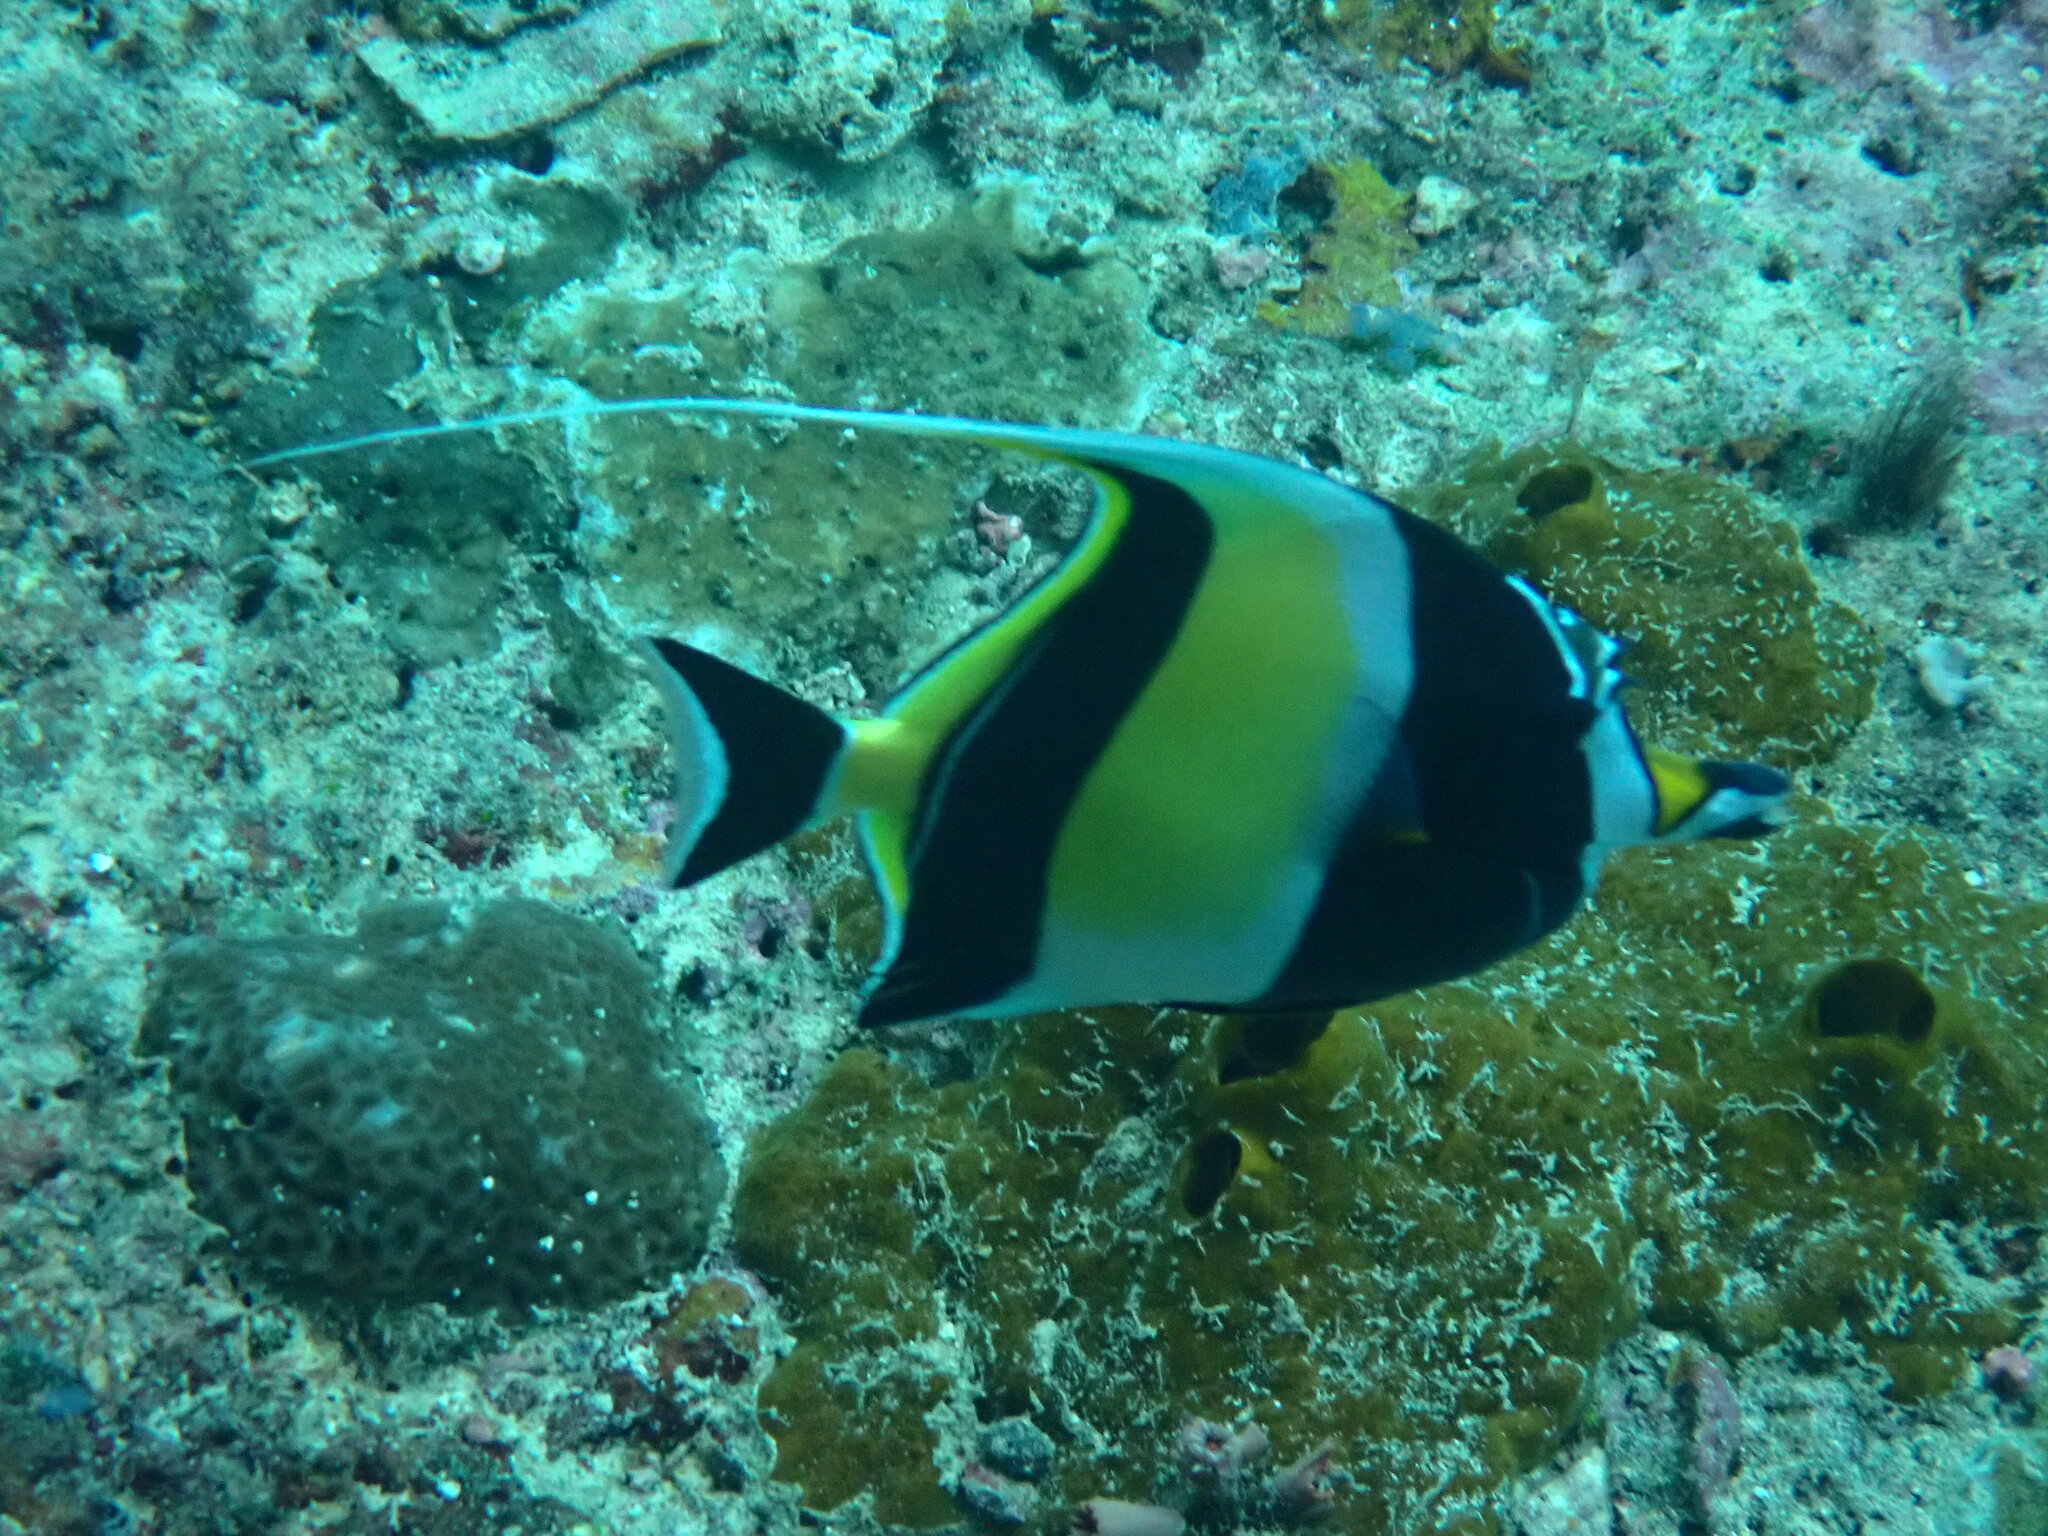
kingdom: Animalia
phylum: Chordata
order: Perciformes
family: Zanclidae
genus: Zanclus
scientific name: Zanclus cornutus
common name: Moorish idol
